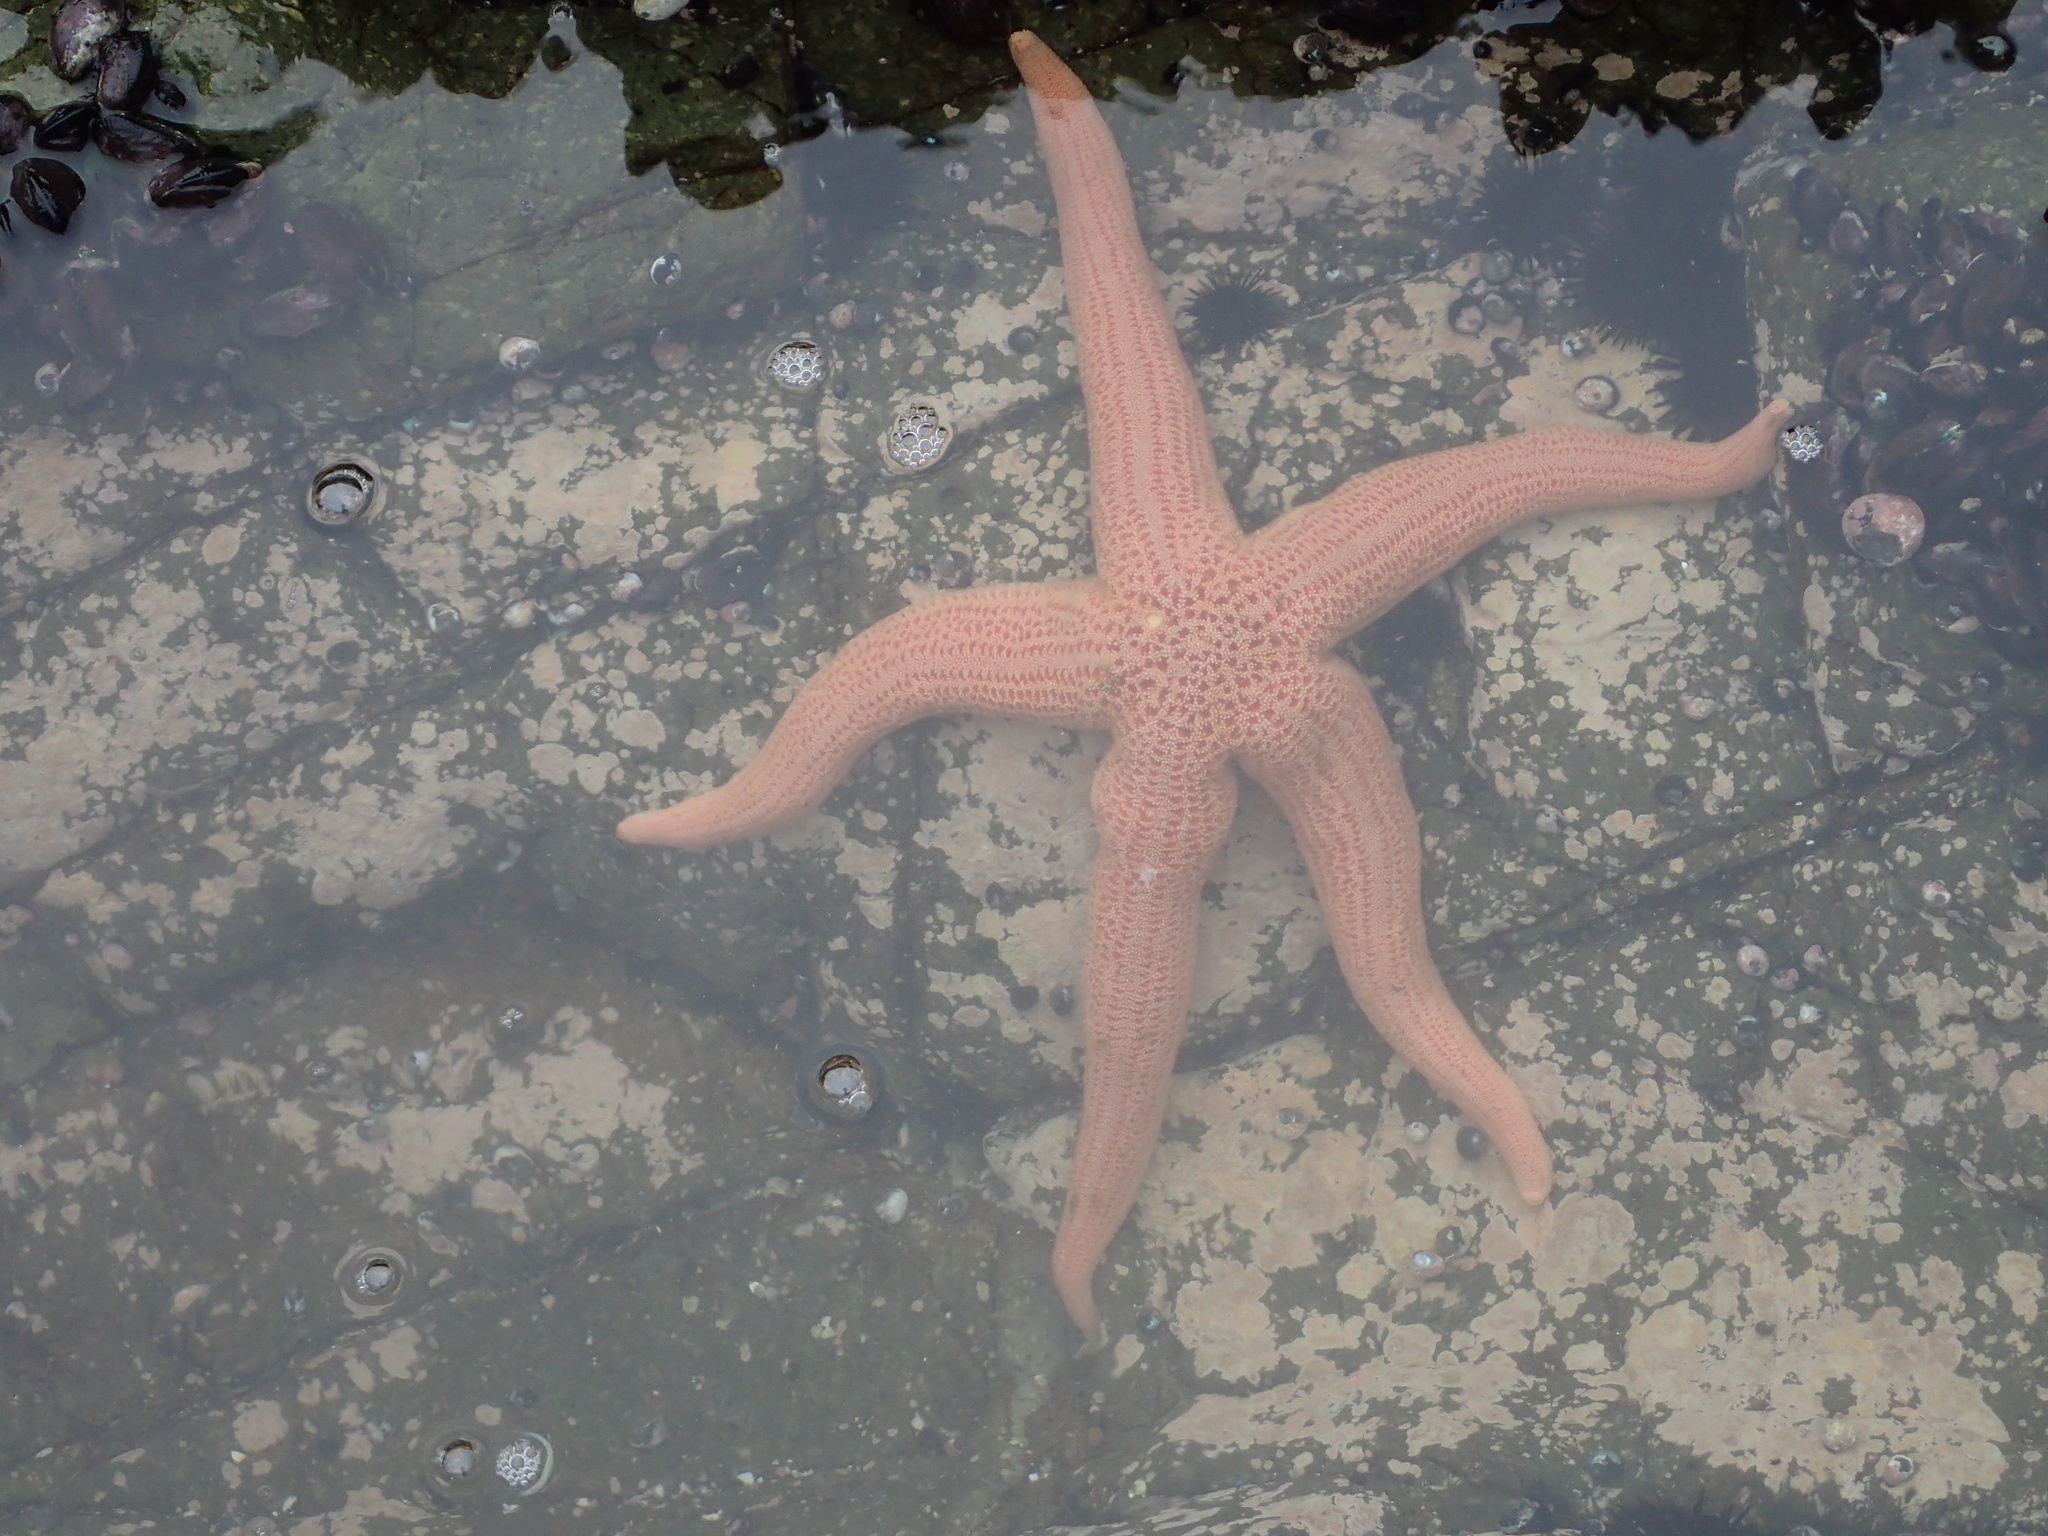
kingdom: Animalia
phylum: Echinodermata
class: Asteroidea
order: Forcipulatida
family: Stichasteridae
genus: Stichaster
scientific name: Stichaster striatus
